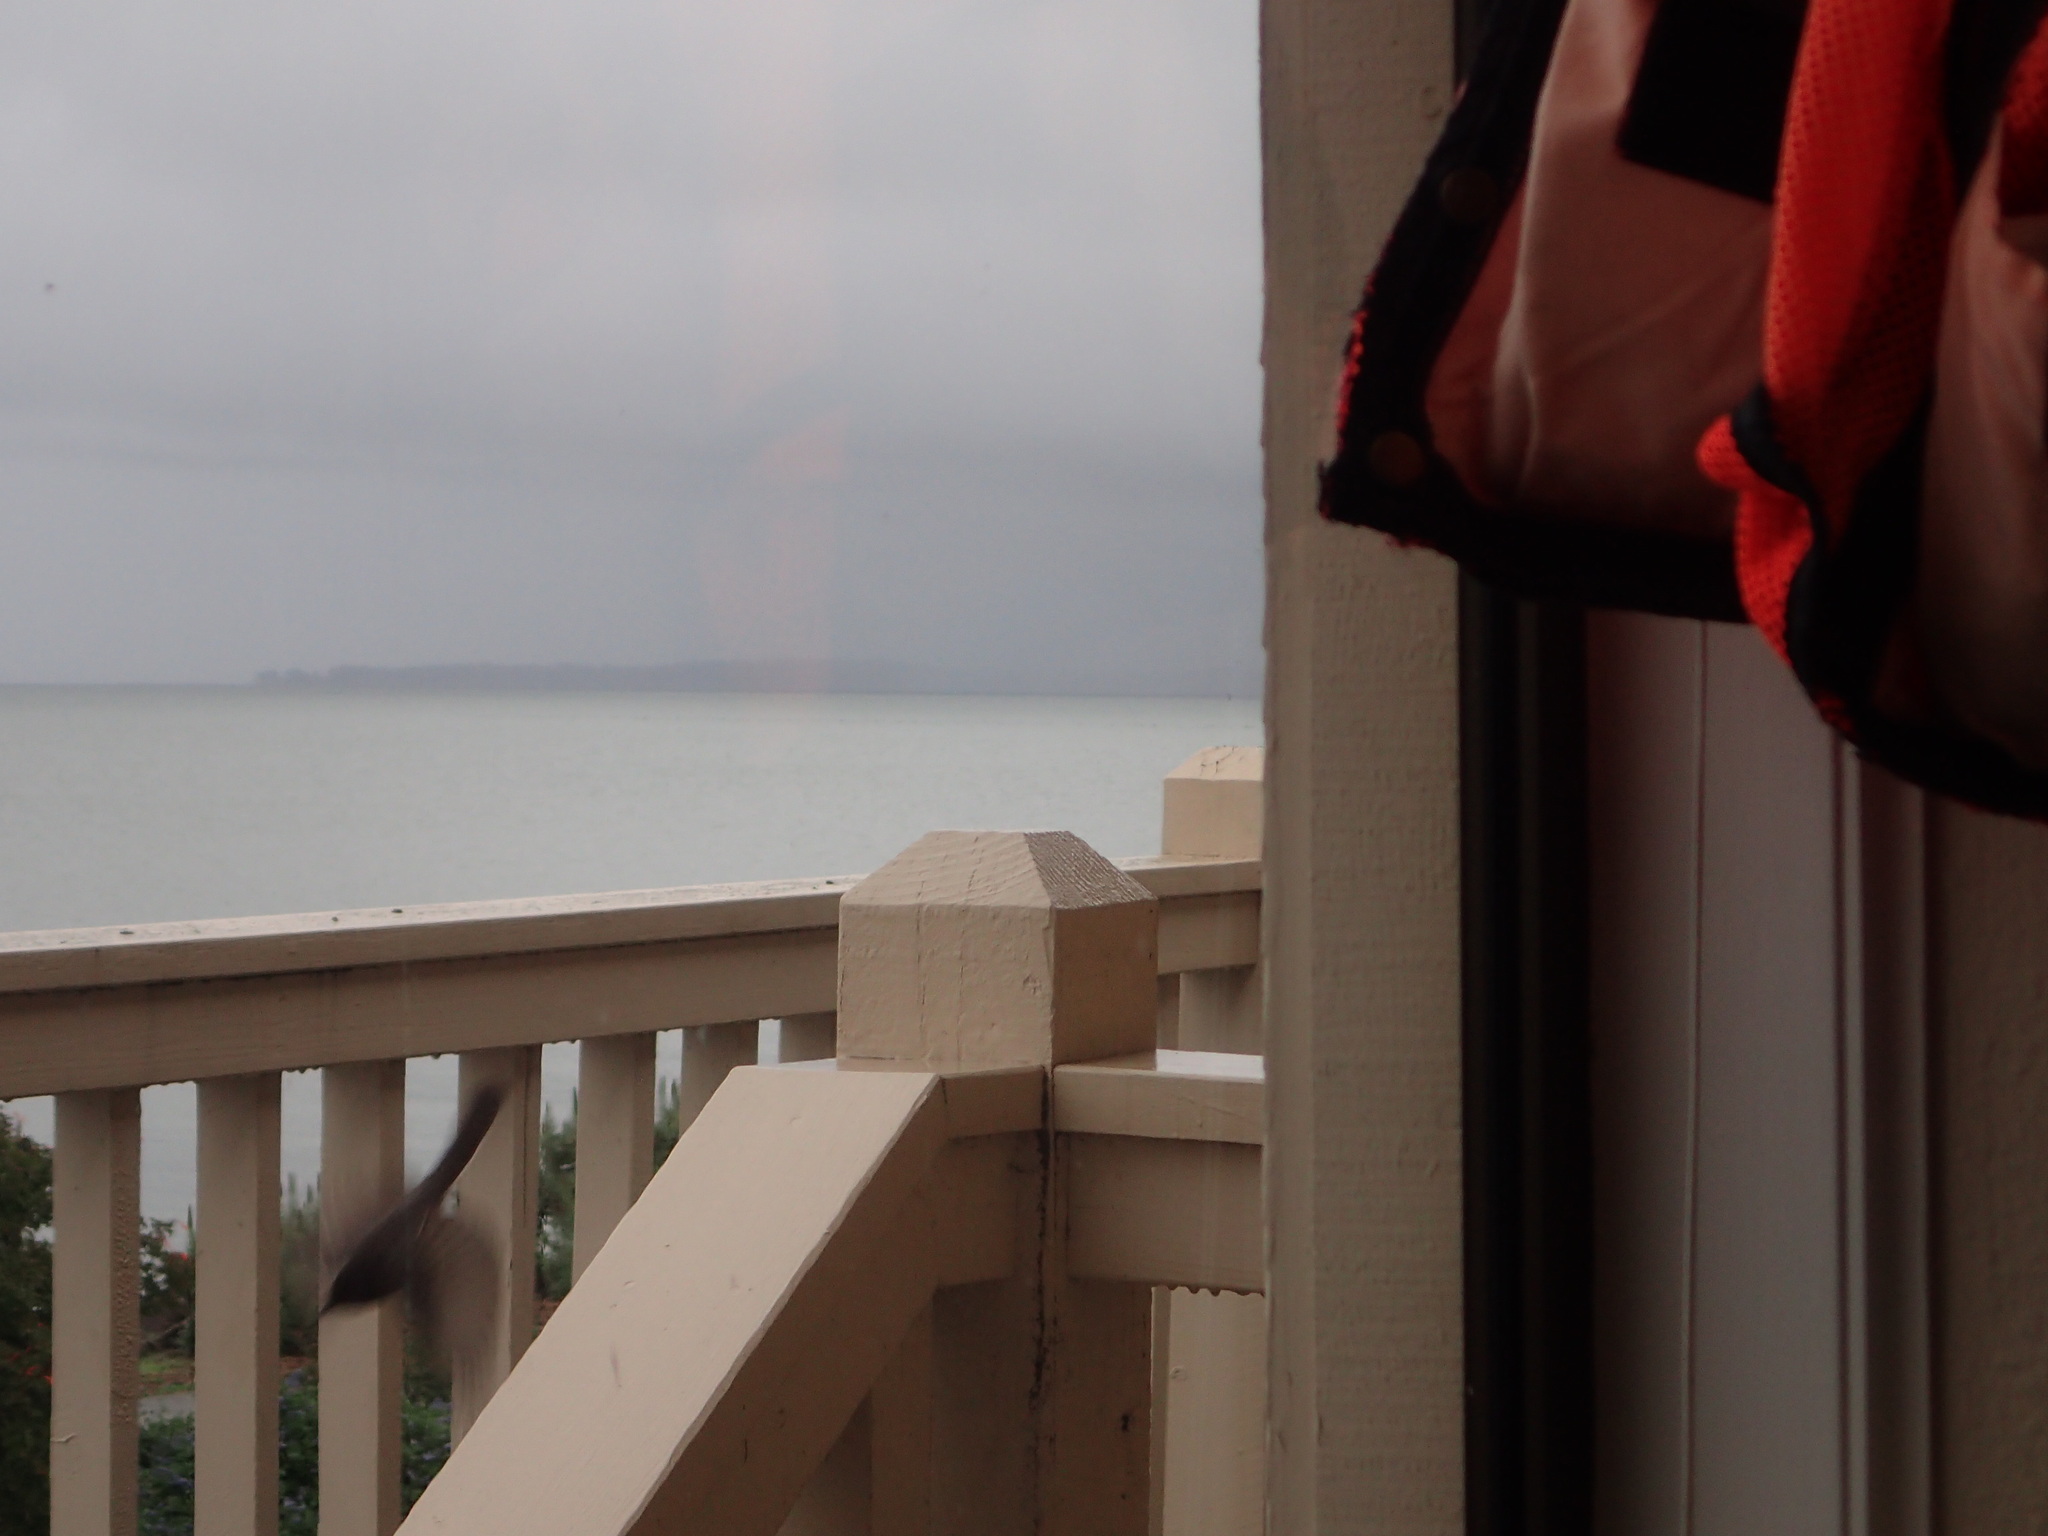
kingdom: Animalia
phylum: Chordata
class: Aves
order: Passeriformes
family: Tyrannidae
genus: Sayornis
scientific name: Sayornis nigricans
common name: Black phoebe
